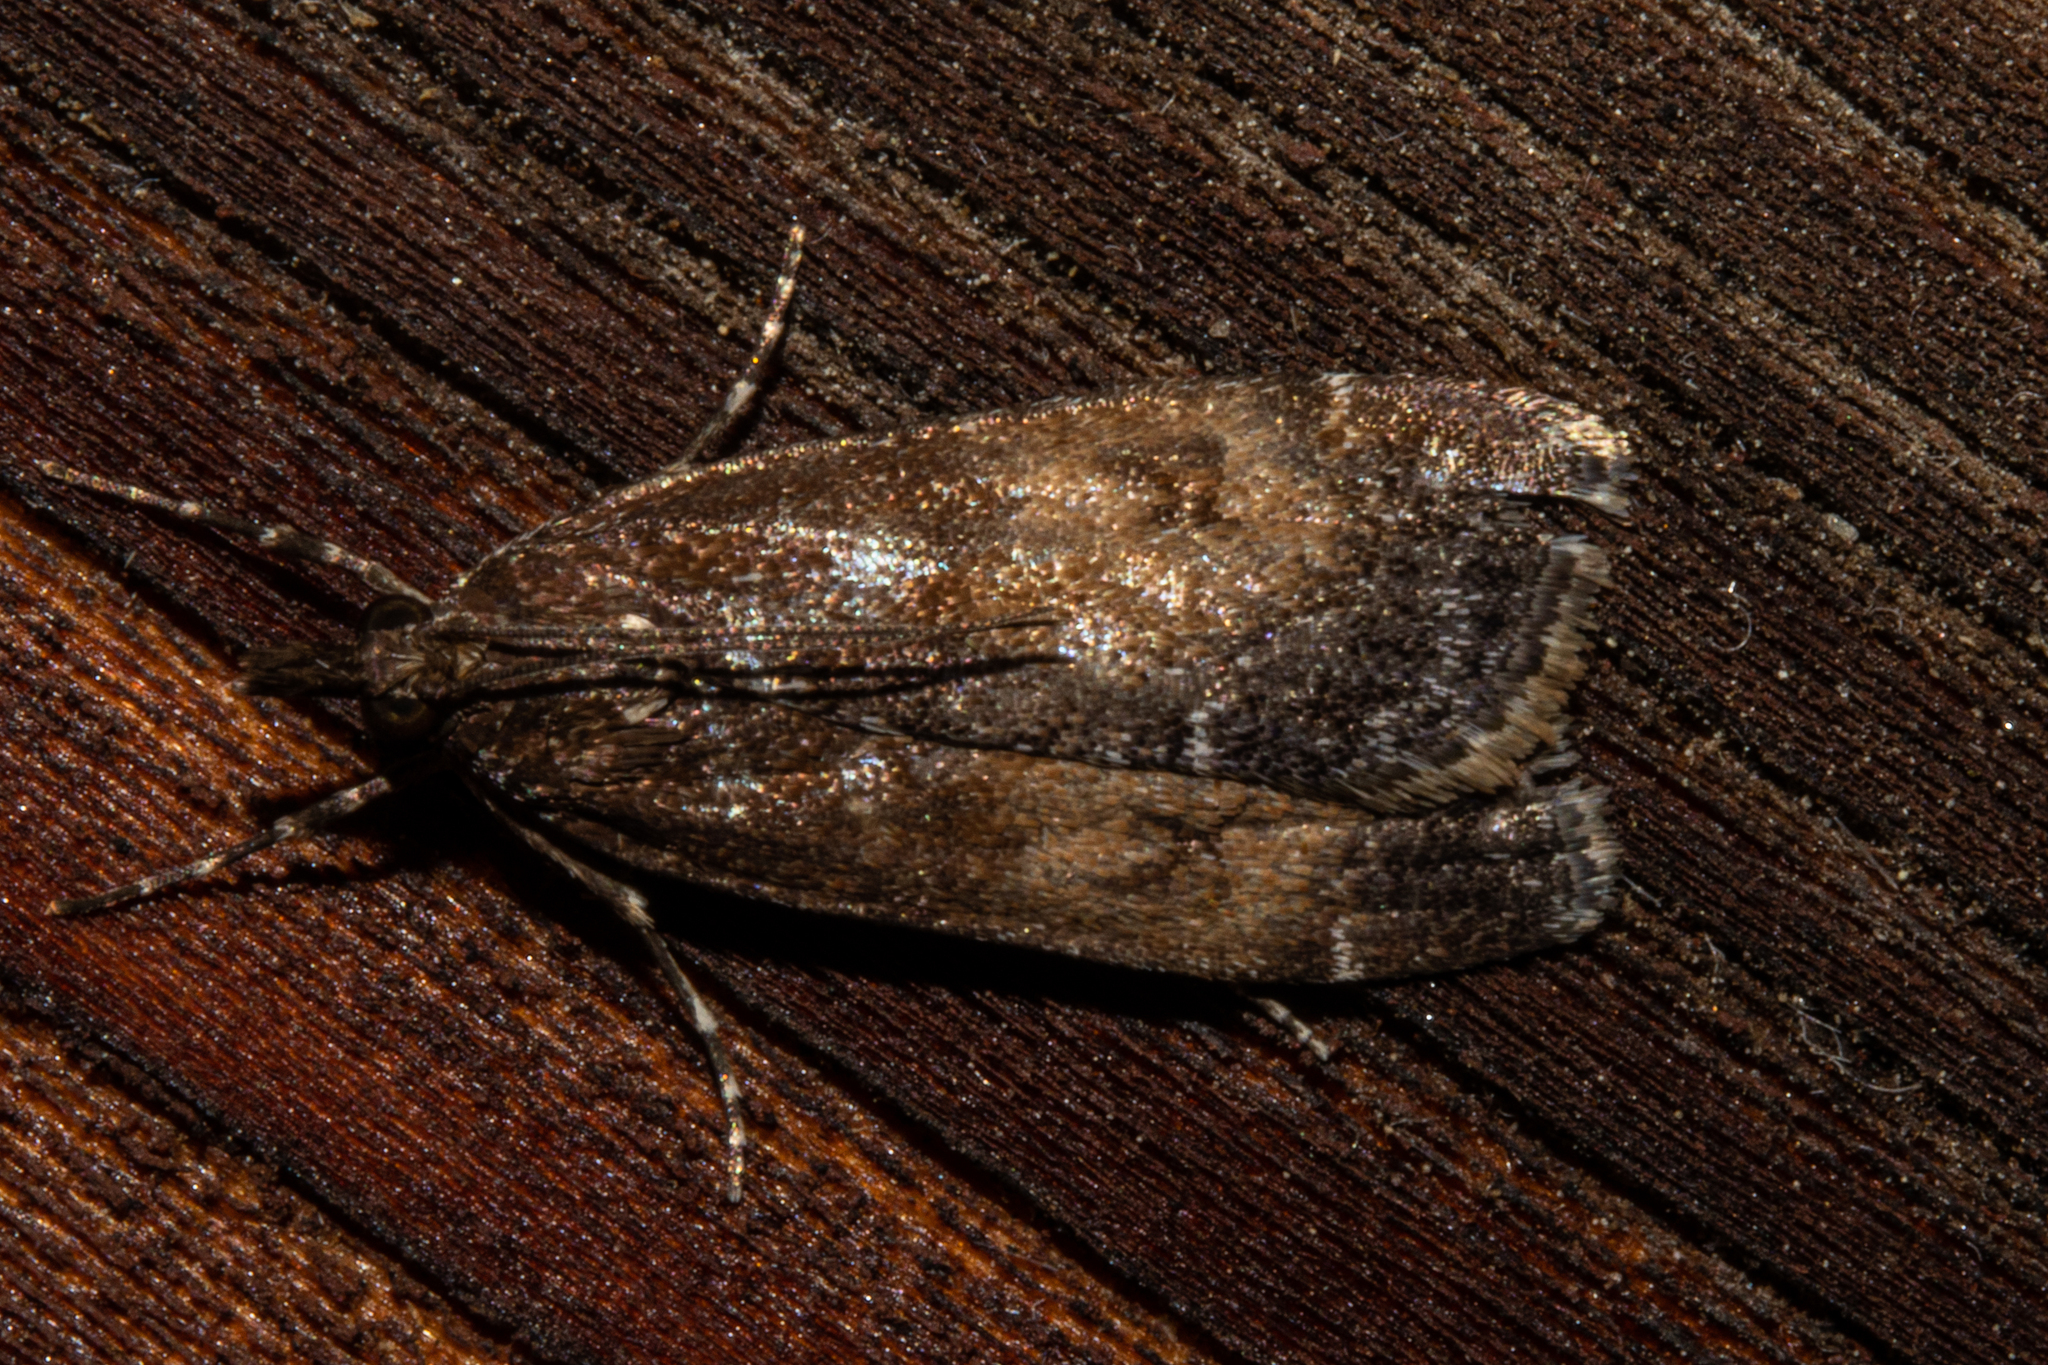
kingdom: Animalia
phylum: Arthropoda
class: Insecta
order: Lepidoptera
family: Crambidae
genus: Eudonia
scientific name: Eudonia asterisca
